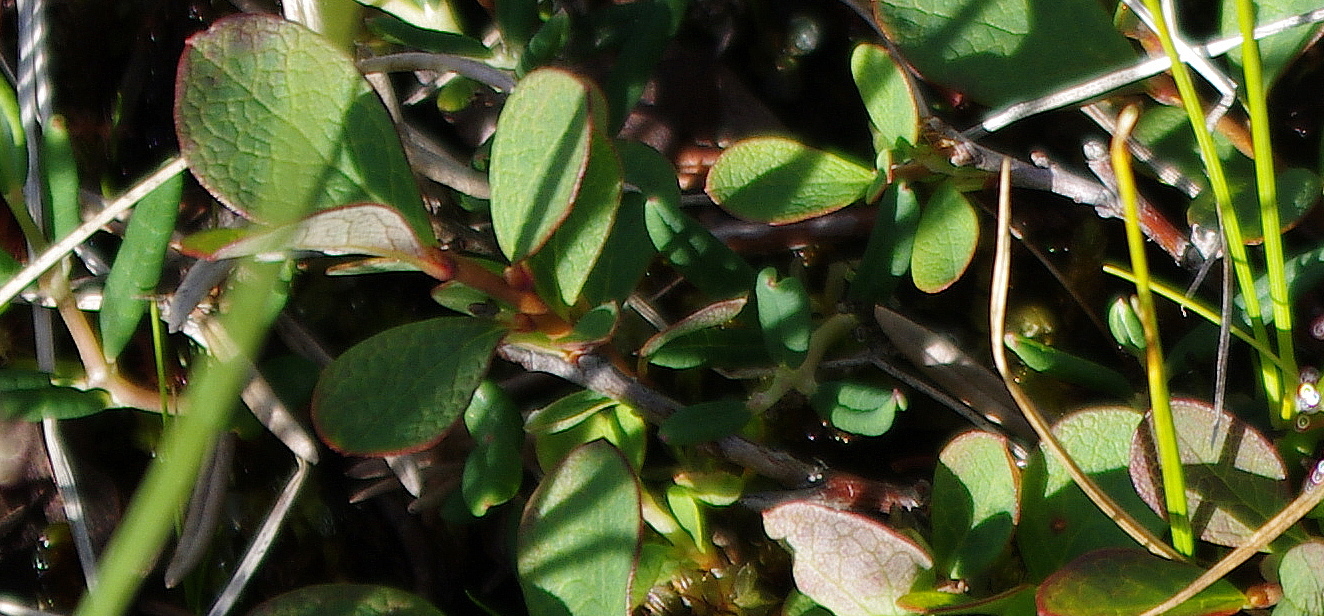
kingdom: Plantae
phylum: Tracheophyta
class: Magnoliopsida
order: Ericales
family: Ericaceae
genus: Vaccinium
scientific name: Vaccinium uliginosum
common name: Bog bilberry
